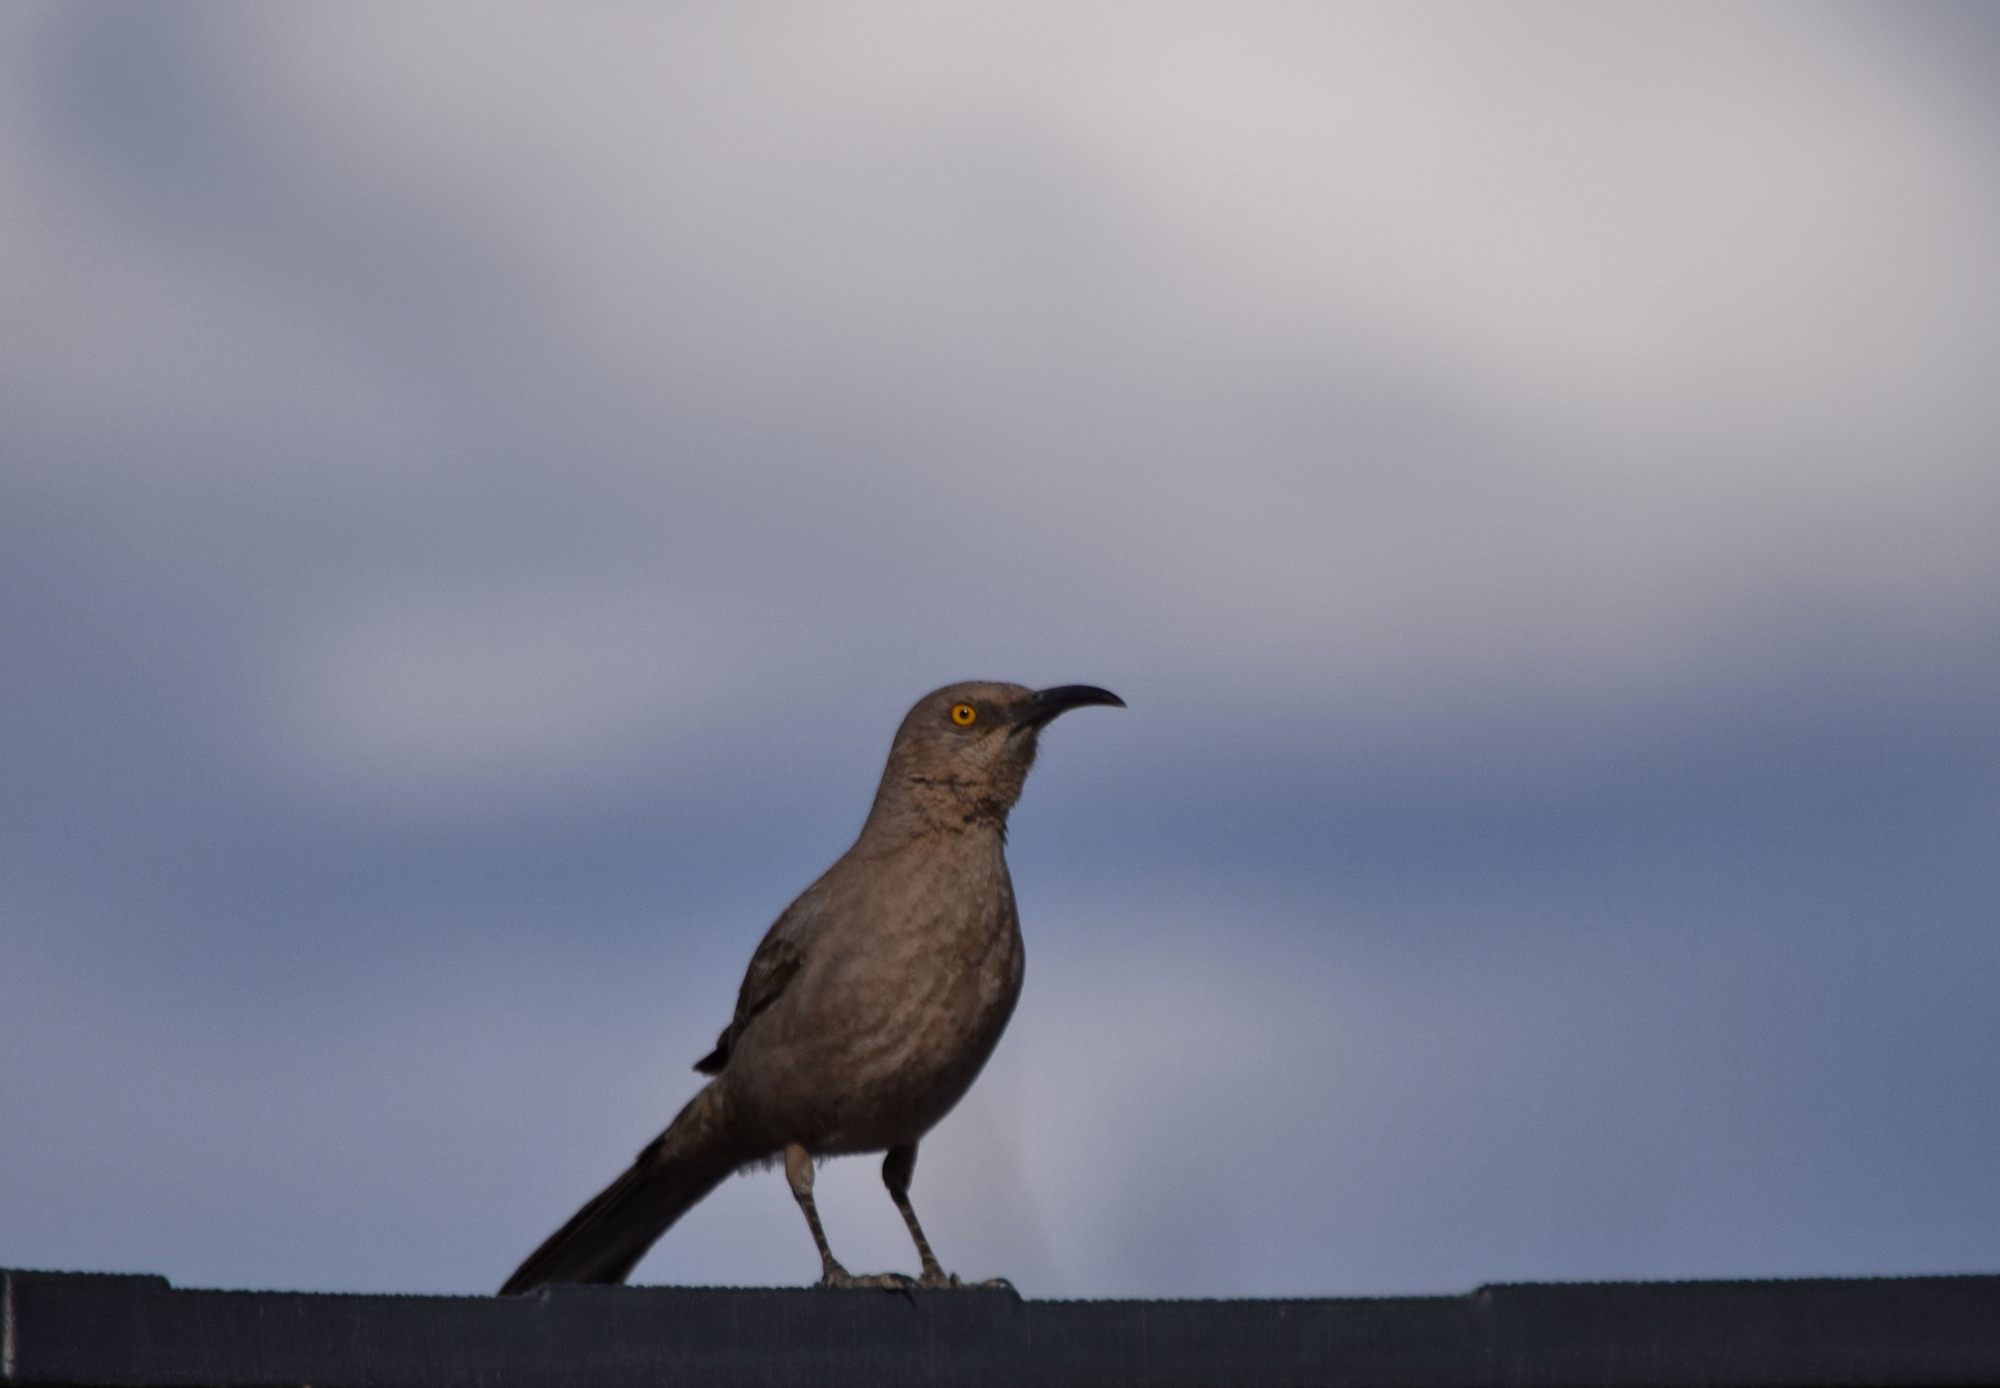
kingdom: Animalia
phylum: Chordata
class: Aves
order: Passeriformes
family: Mimidae
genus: Toxostoma
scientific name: Toxostoma curvirostre
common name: Curve-billed thrasher
